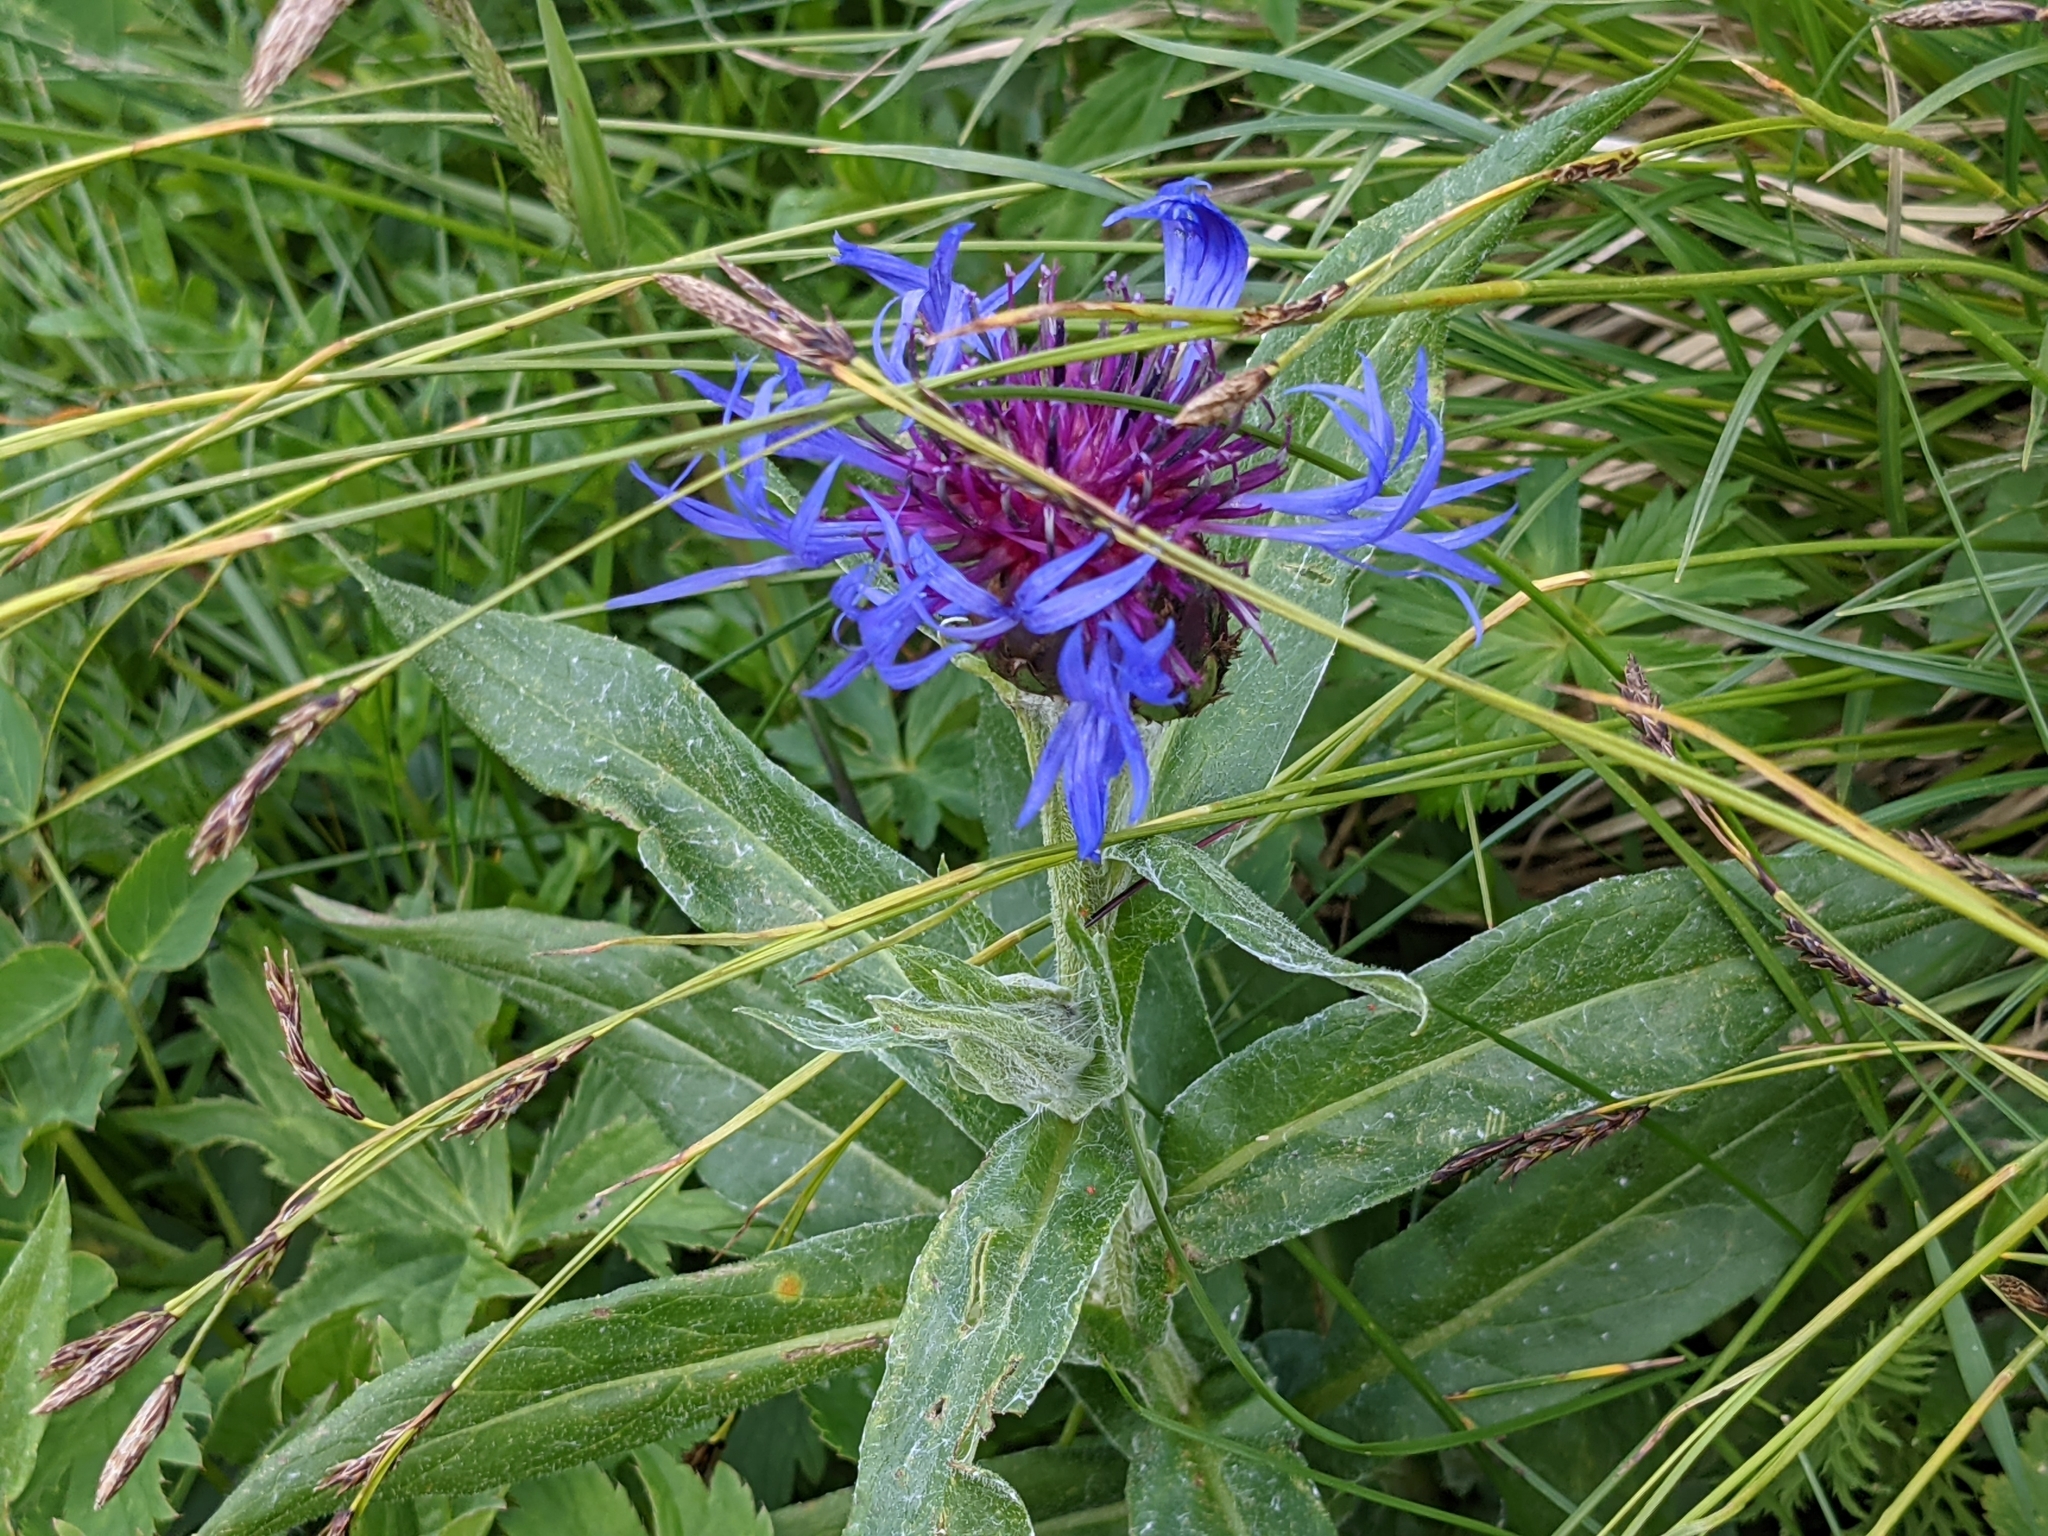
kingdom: Plantae
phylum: Tracheophyta
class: Magnoliopsida
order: Asterales
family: Asteraceae
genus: Centaurea
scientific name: Centaurea montana
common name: Perennial cornflower
